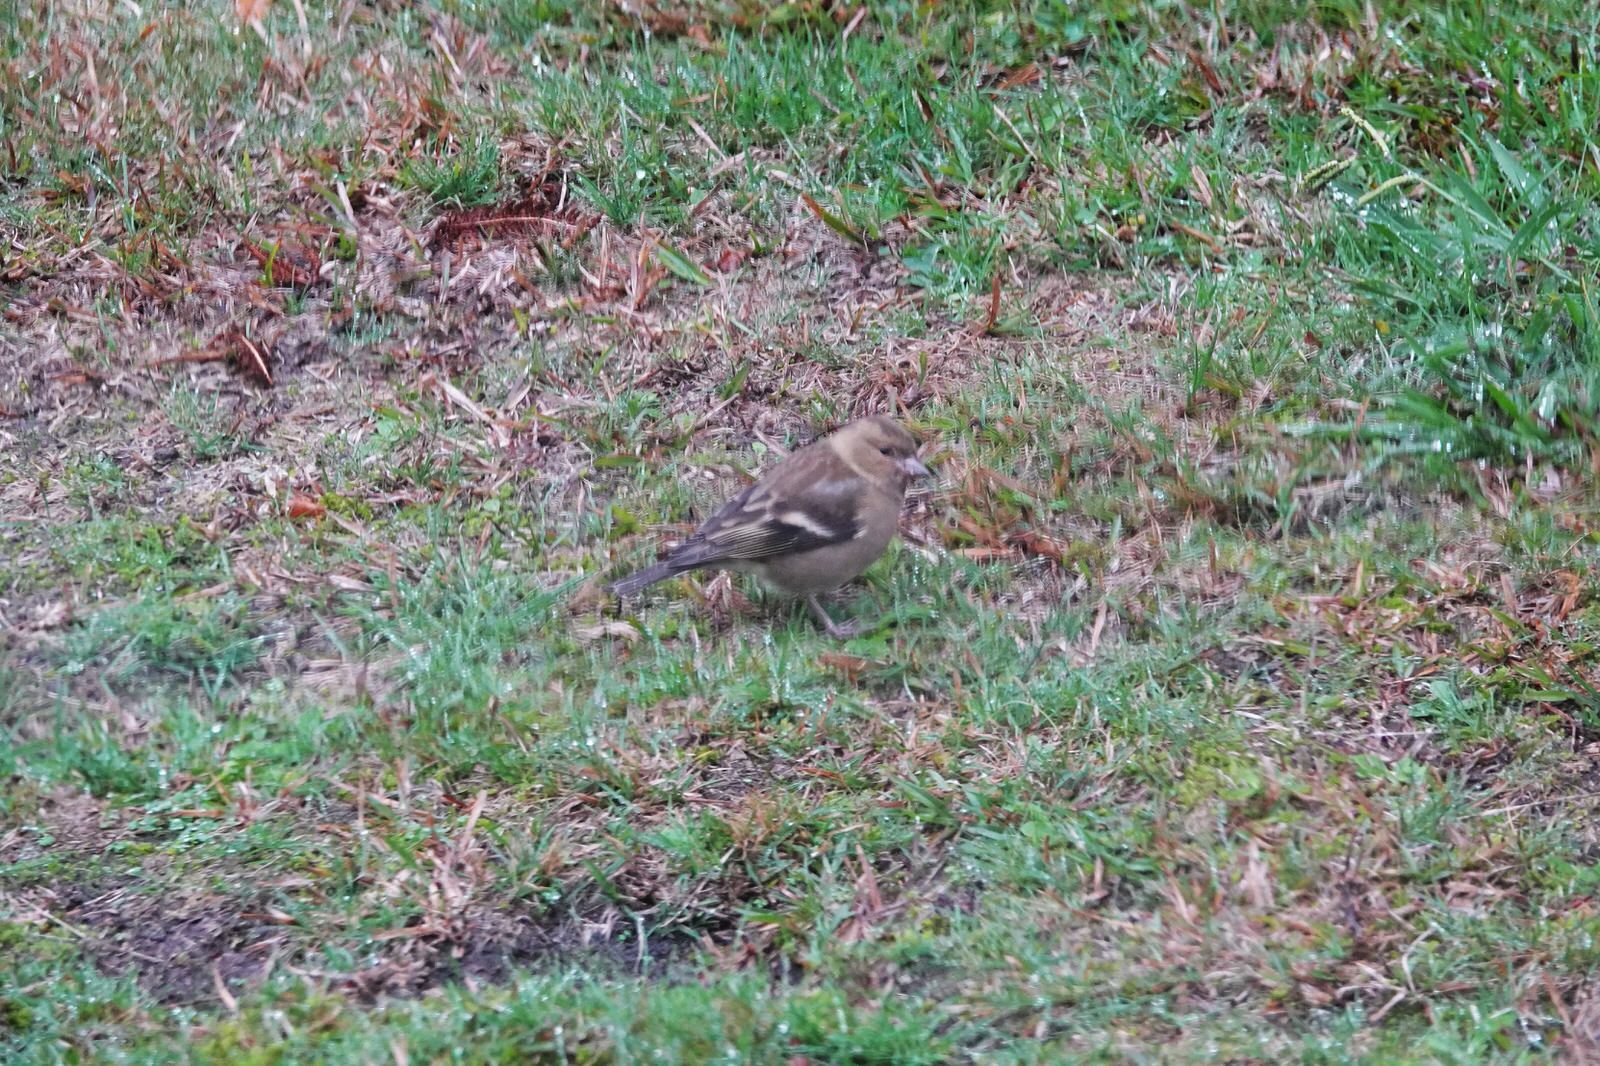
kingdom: Animalia
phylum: Chordata
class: Aves
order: Passeriformes
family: Fringillidae
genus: Fringilla
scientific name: Fringilla coelebs
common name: Common chaffinch
